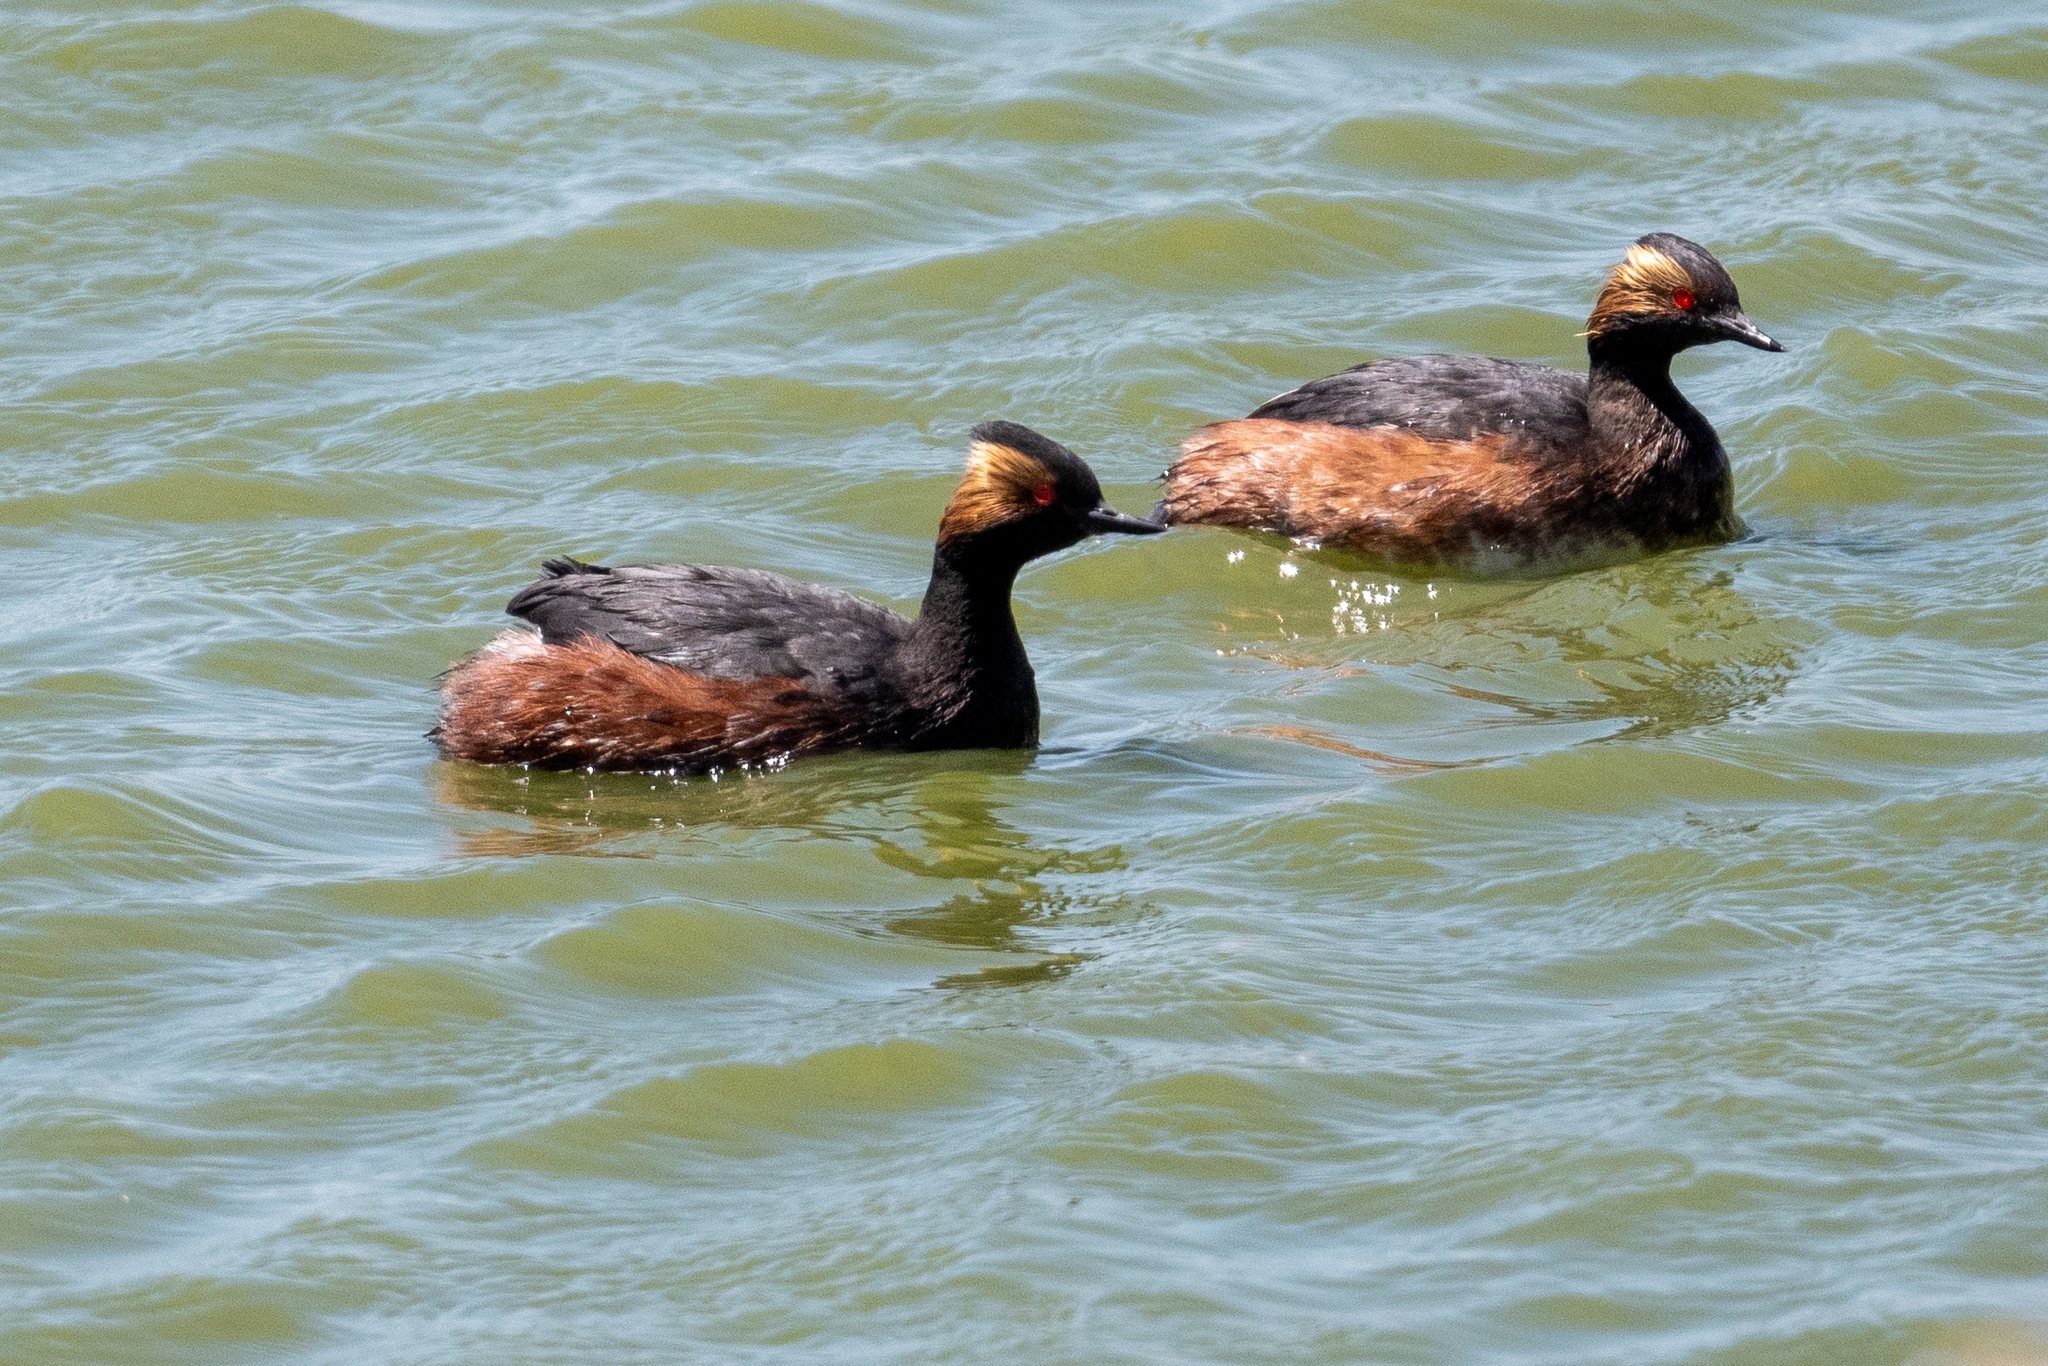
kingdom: Animalia
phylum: Chordata
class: Aves
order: Podicipediformes
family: Podicipedidae
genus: Podiceps
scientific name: Podiceps nigricollis
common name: Black-necked grebe
